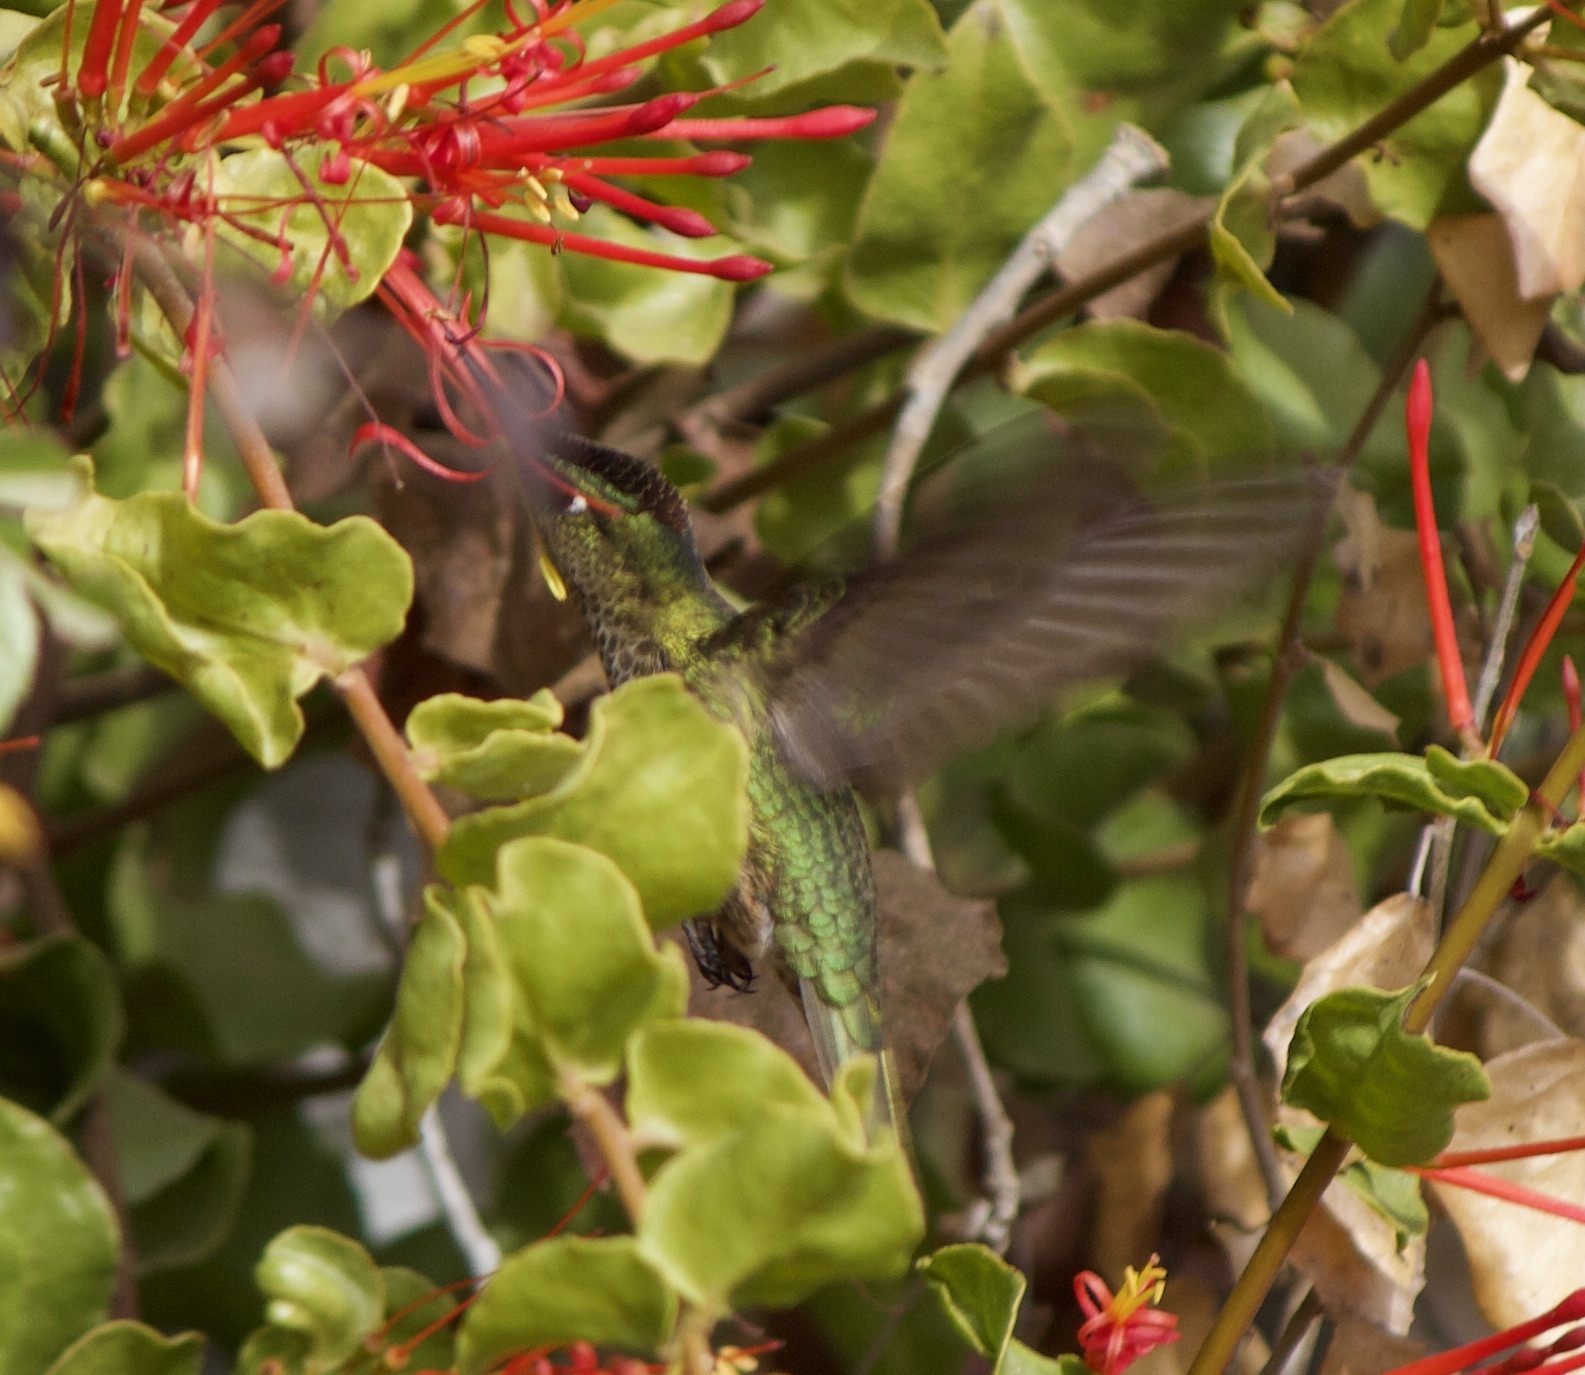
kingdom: Animalia
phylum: Chordata
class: Aves
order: Apodiformes
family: Trochilidae
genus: Sephanoides
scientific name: Sephanoides sephaniodes
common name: Green-backed firecrown
